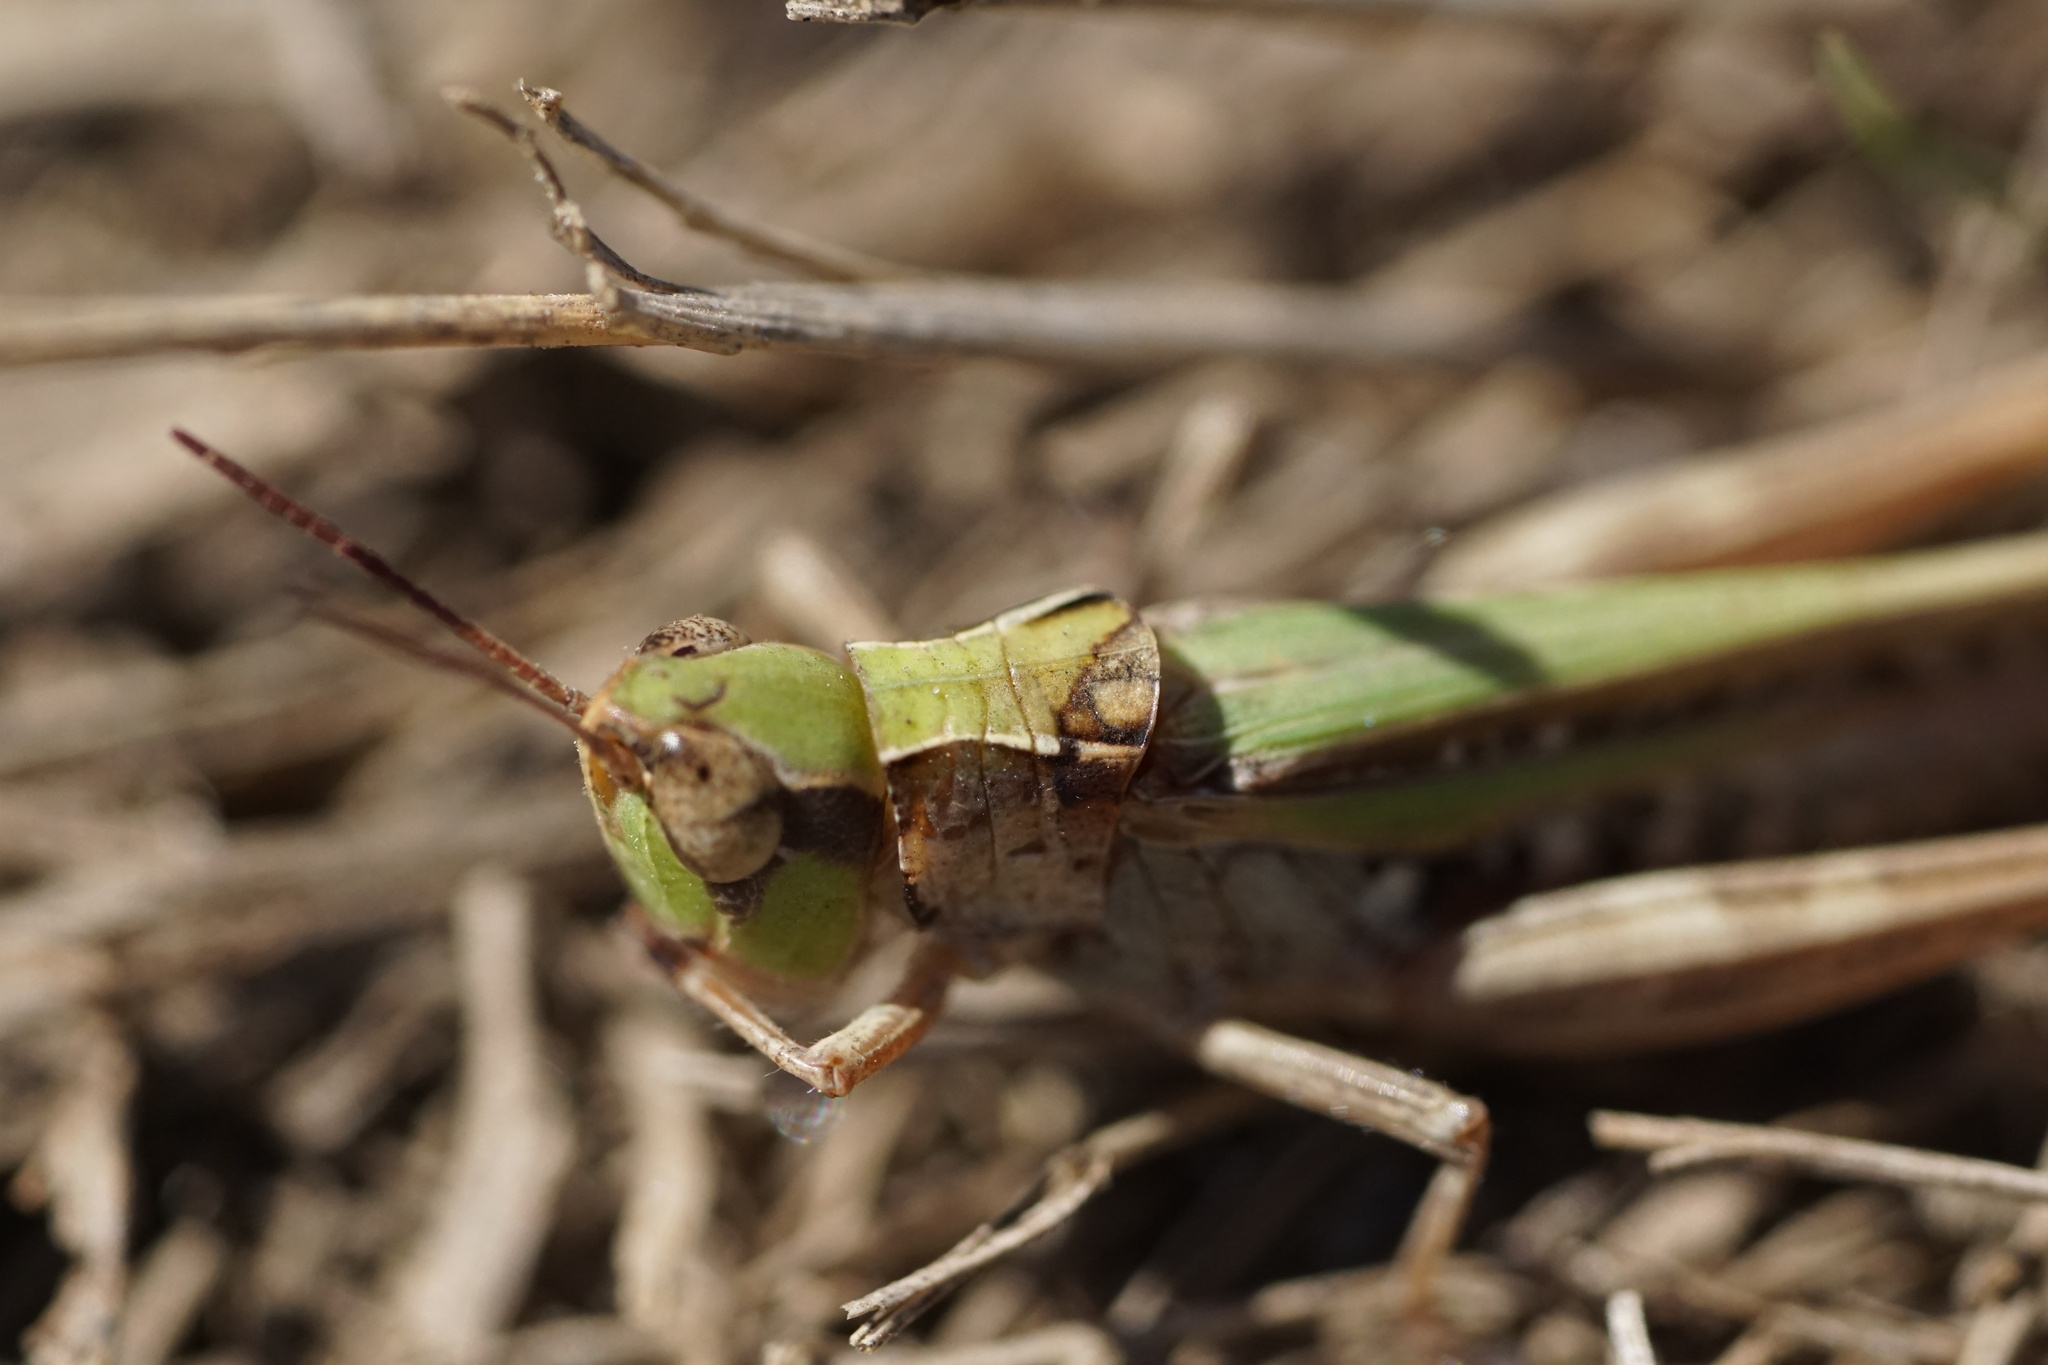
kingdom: Animalia
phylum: Arthropoda
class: Insecta
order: Orthoptera
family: Acrididae
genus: Orphulella
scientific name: Orphulella pelidna
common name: Spotted-wing grasshopper
